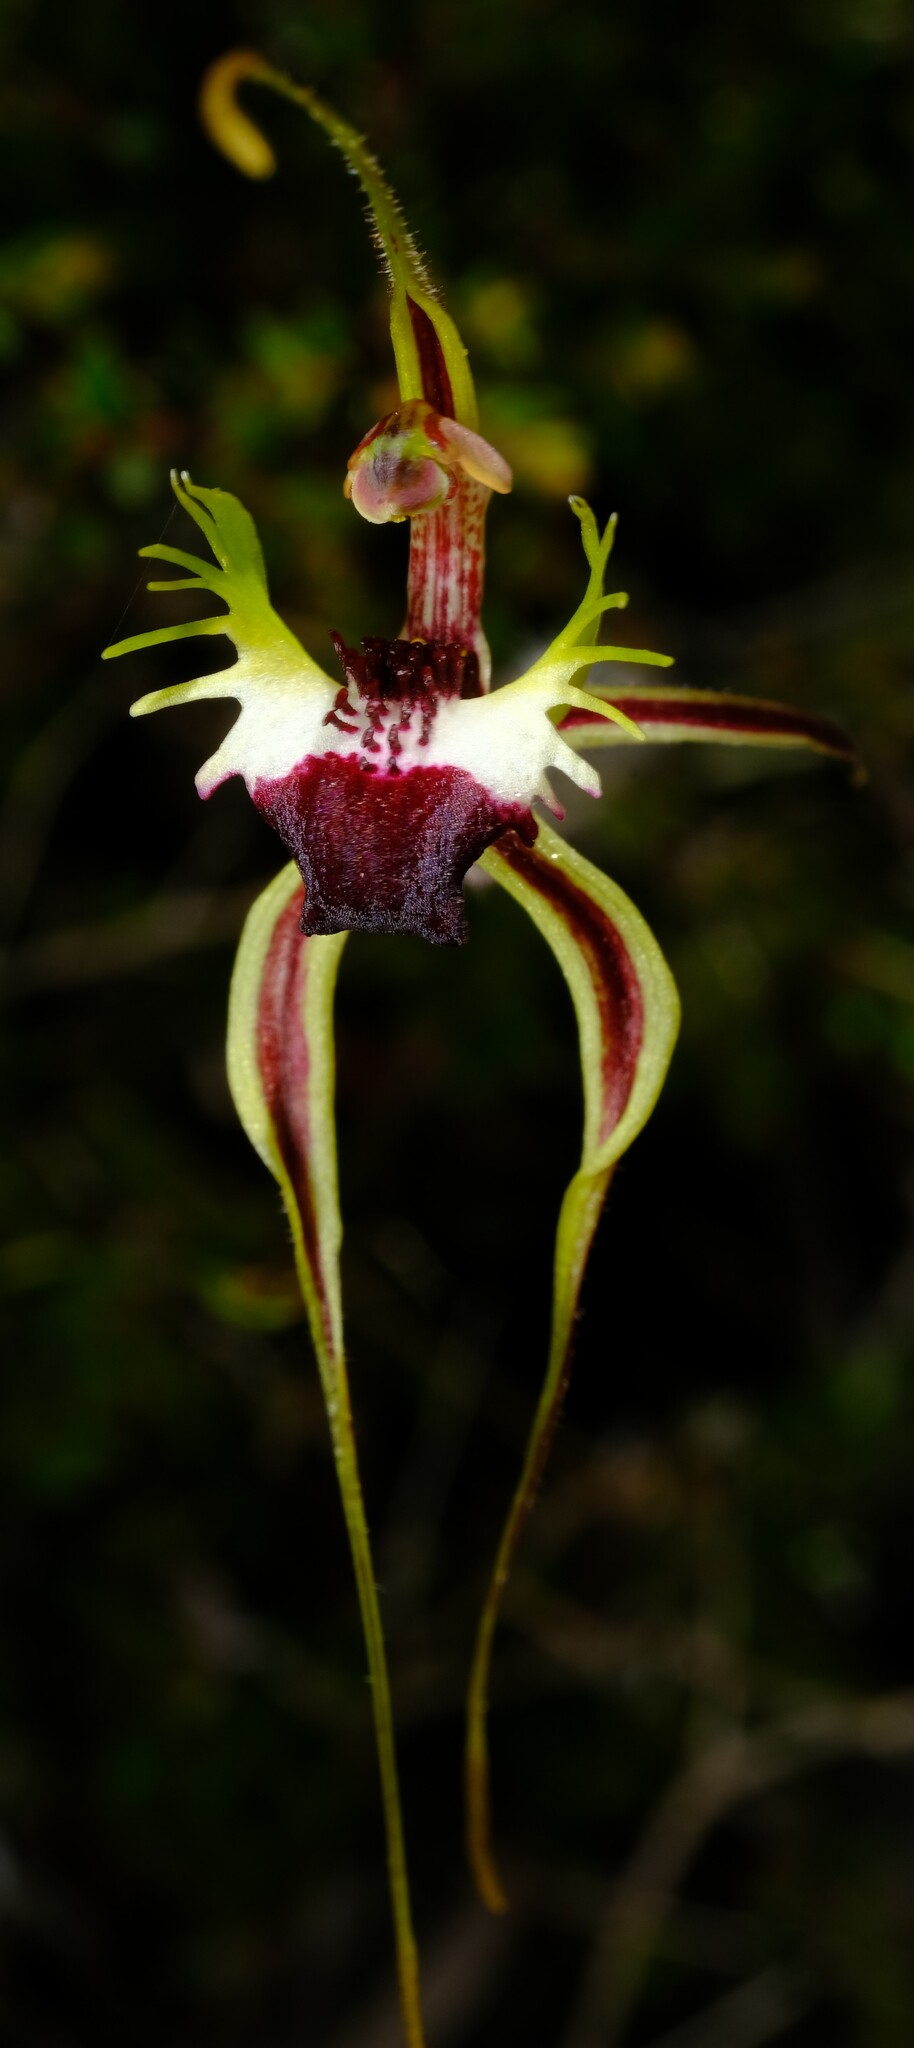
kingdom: Plantae
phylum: Tracheophyta
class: Liliopsida
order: Asparagales
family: Orchidaceae
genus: Caladenia
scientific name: Caladenia tentaculata
